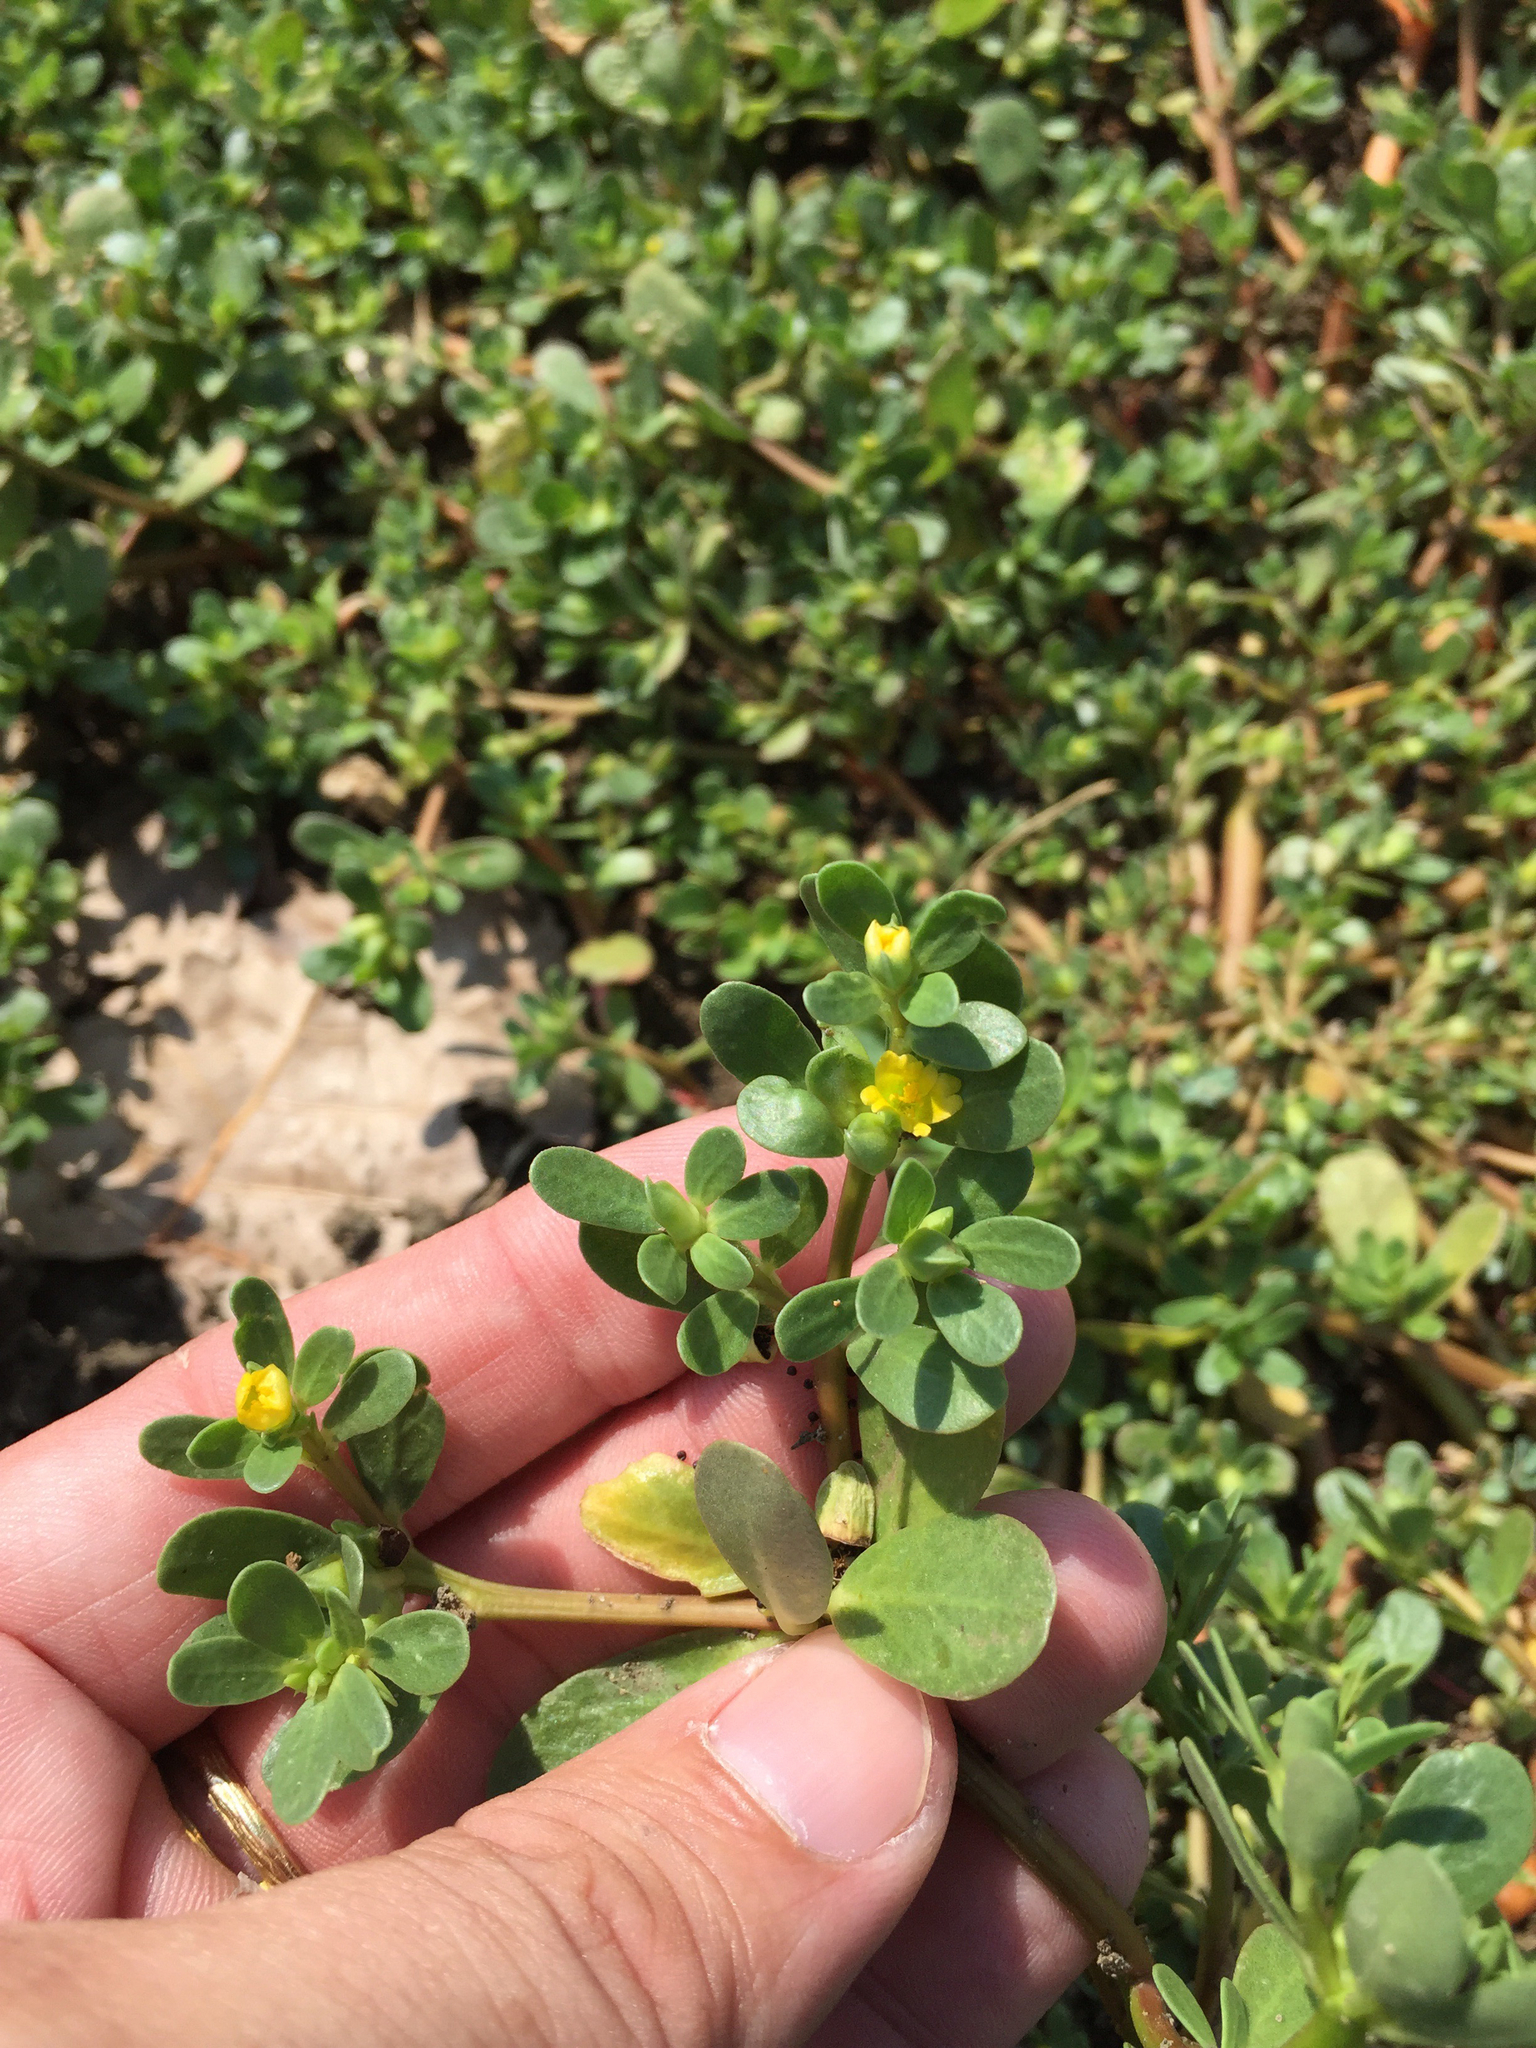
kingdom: Plantae
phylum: Tracheophyta
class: Magnoliopsida
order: Caryophyllales
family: Portulacaceae
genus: Portulaca
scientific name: Portulaca oleracea
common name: Common purslane
